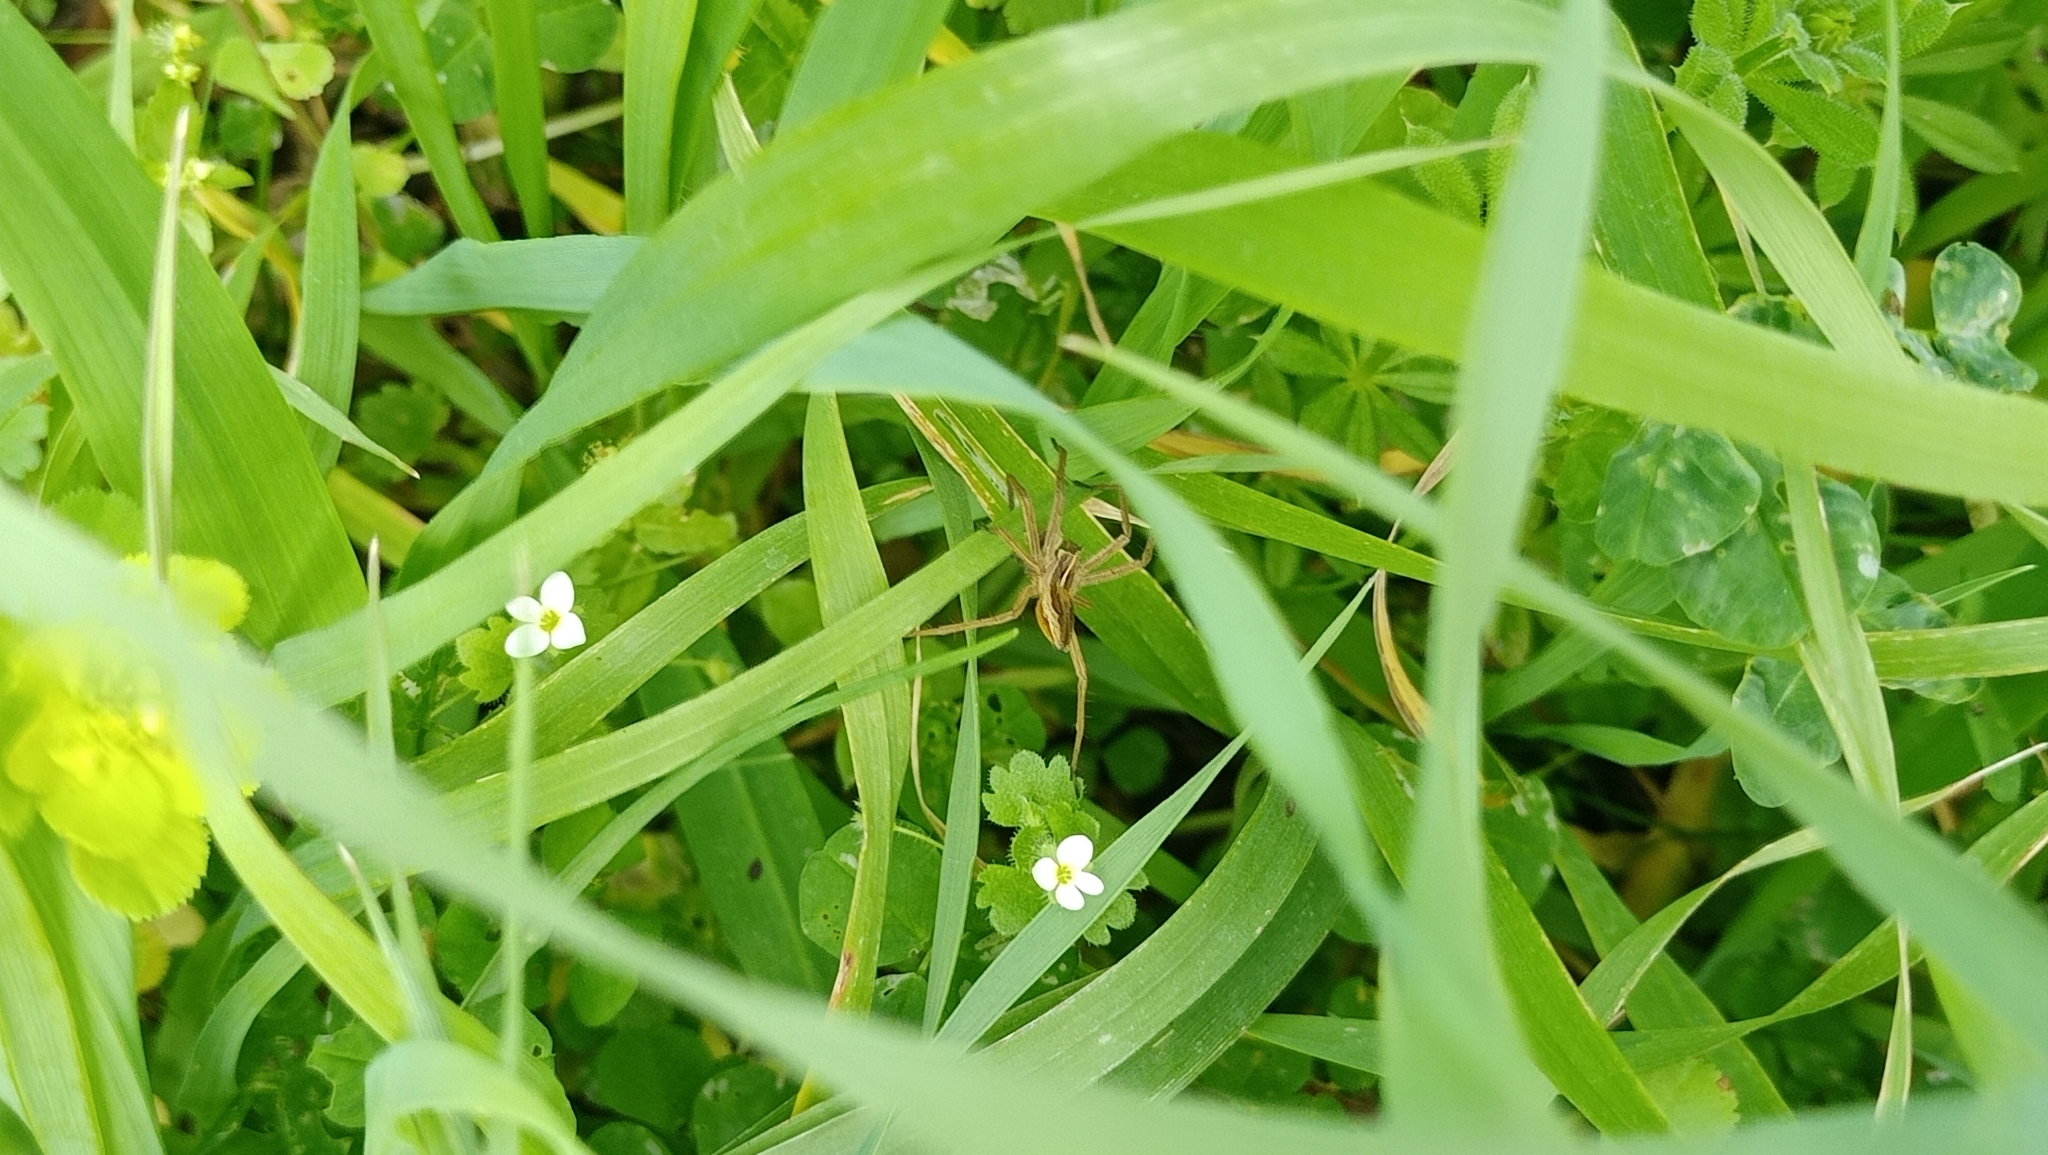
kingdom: Animalia
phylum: Arthropoda
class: Arachnida
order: Araneae
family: Pisauridae
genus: Pisaura
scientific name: Pisaura mirabilis
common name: Tent spider
